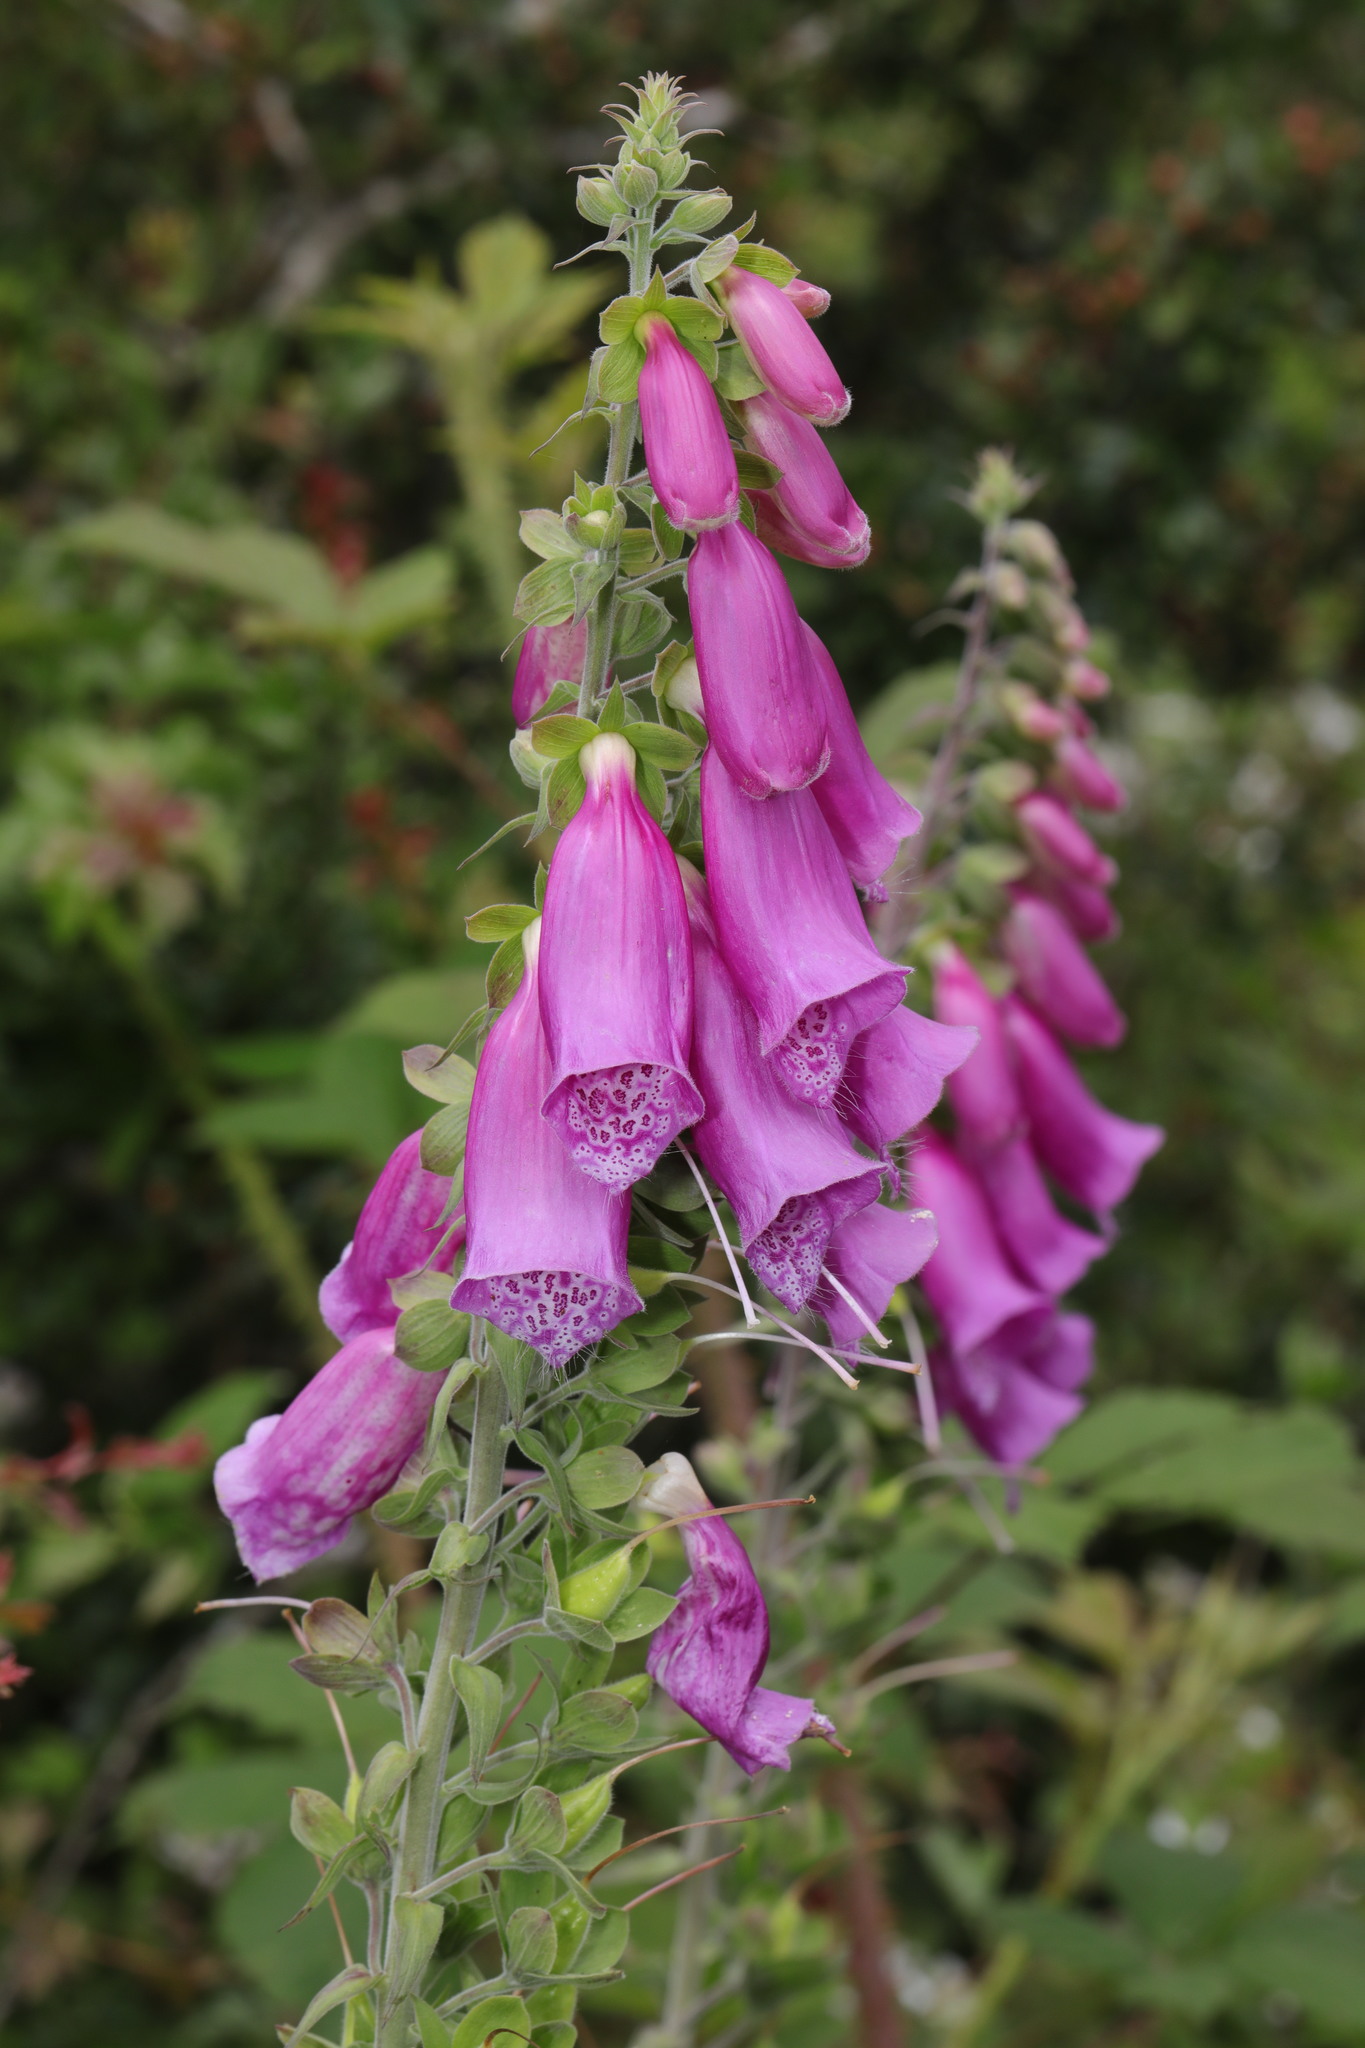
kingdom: Plantae
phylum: Tracheophyta
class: Magnoliopsida
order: Lamiales
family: Plantaginaceae
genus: Digitalis
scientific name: Digitalis purpurea
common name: Foxglove
